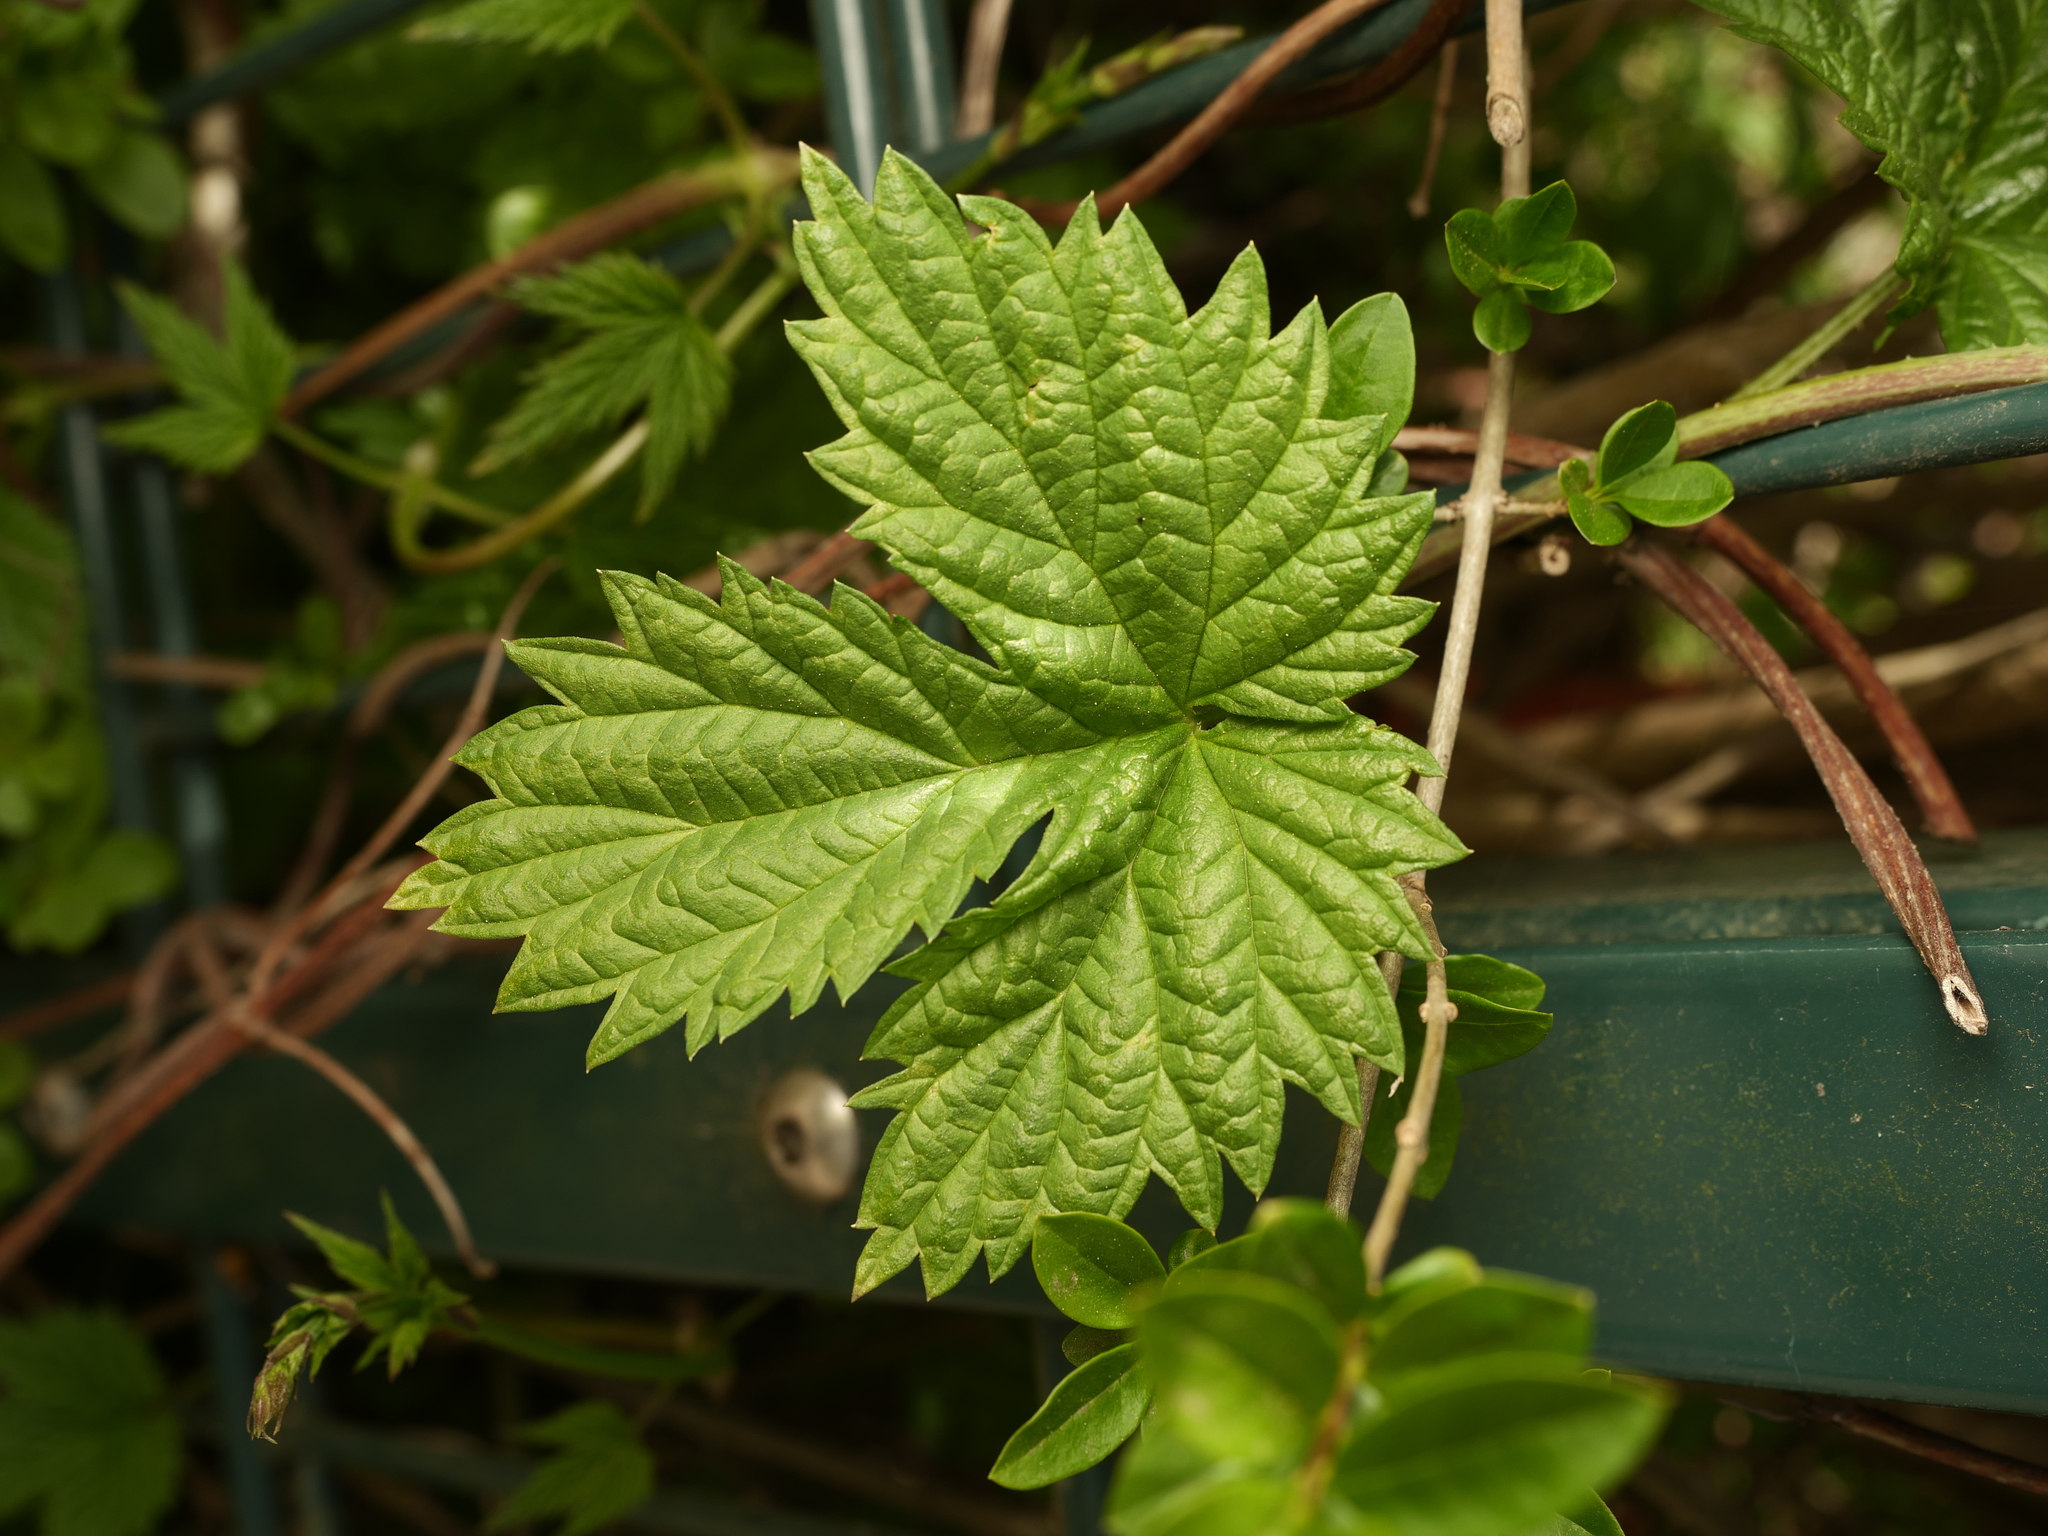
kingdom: Plantae
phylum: Tracheophyta
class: Magnoliopsida
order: Rosales
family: Cannabaceae
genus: Humulus
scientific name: Humulus lupulus
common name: Hop
